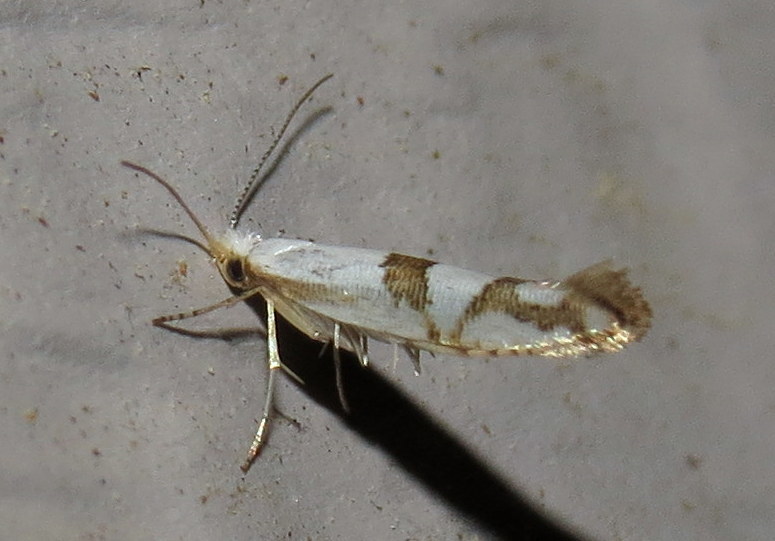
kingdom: Animalia
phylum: Arthropoda
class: Insecta
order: Lepidoptera
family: Argyresthiidae
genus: Argyresthia
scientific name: Argyresthia oreasella
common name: Cherry shoot borer moth
